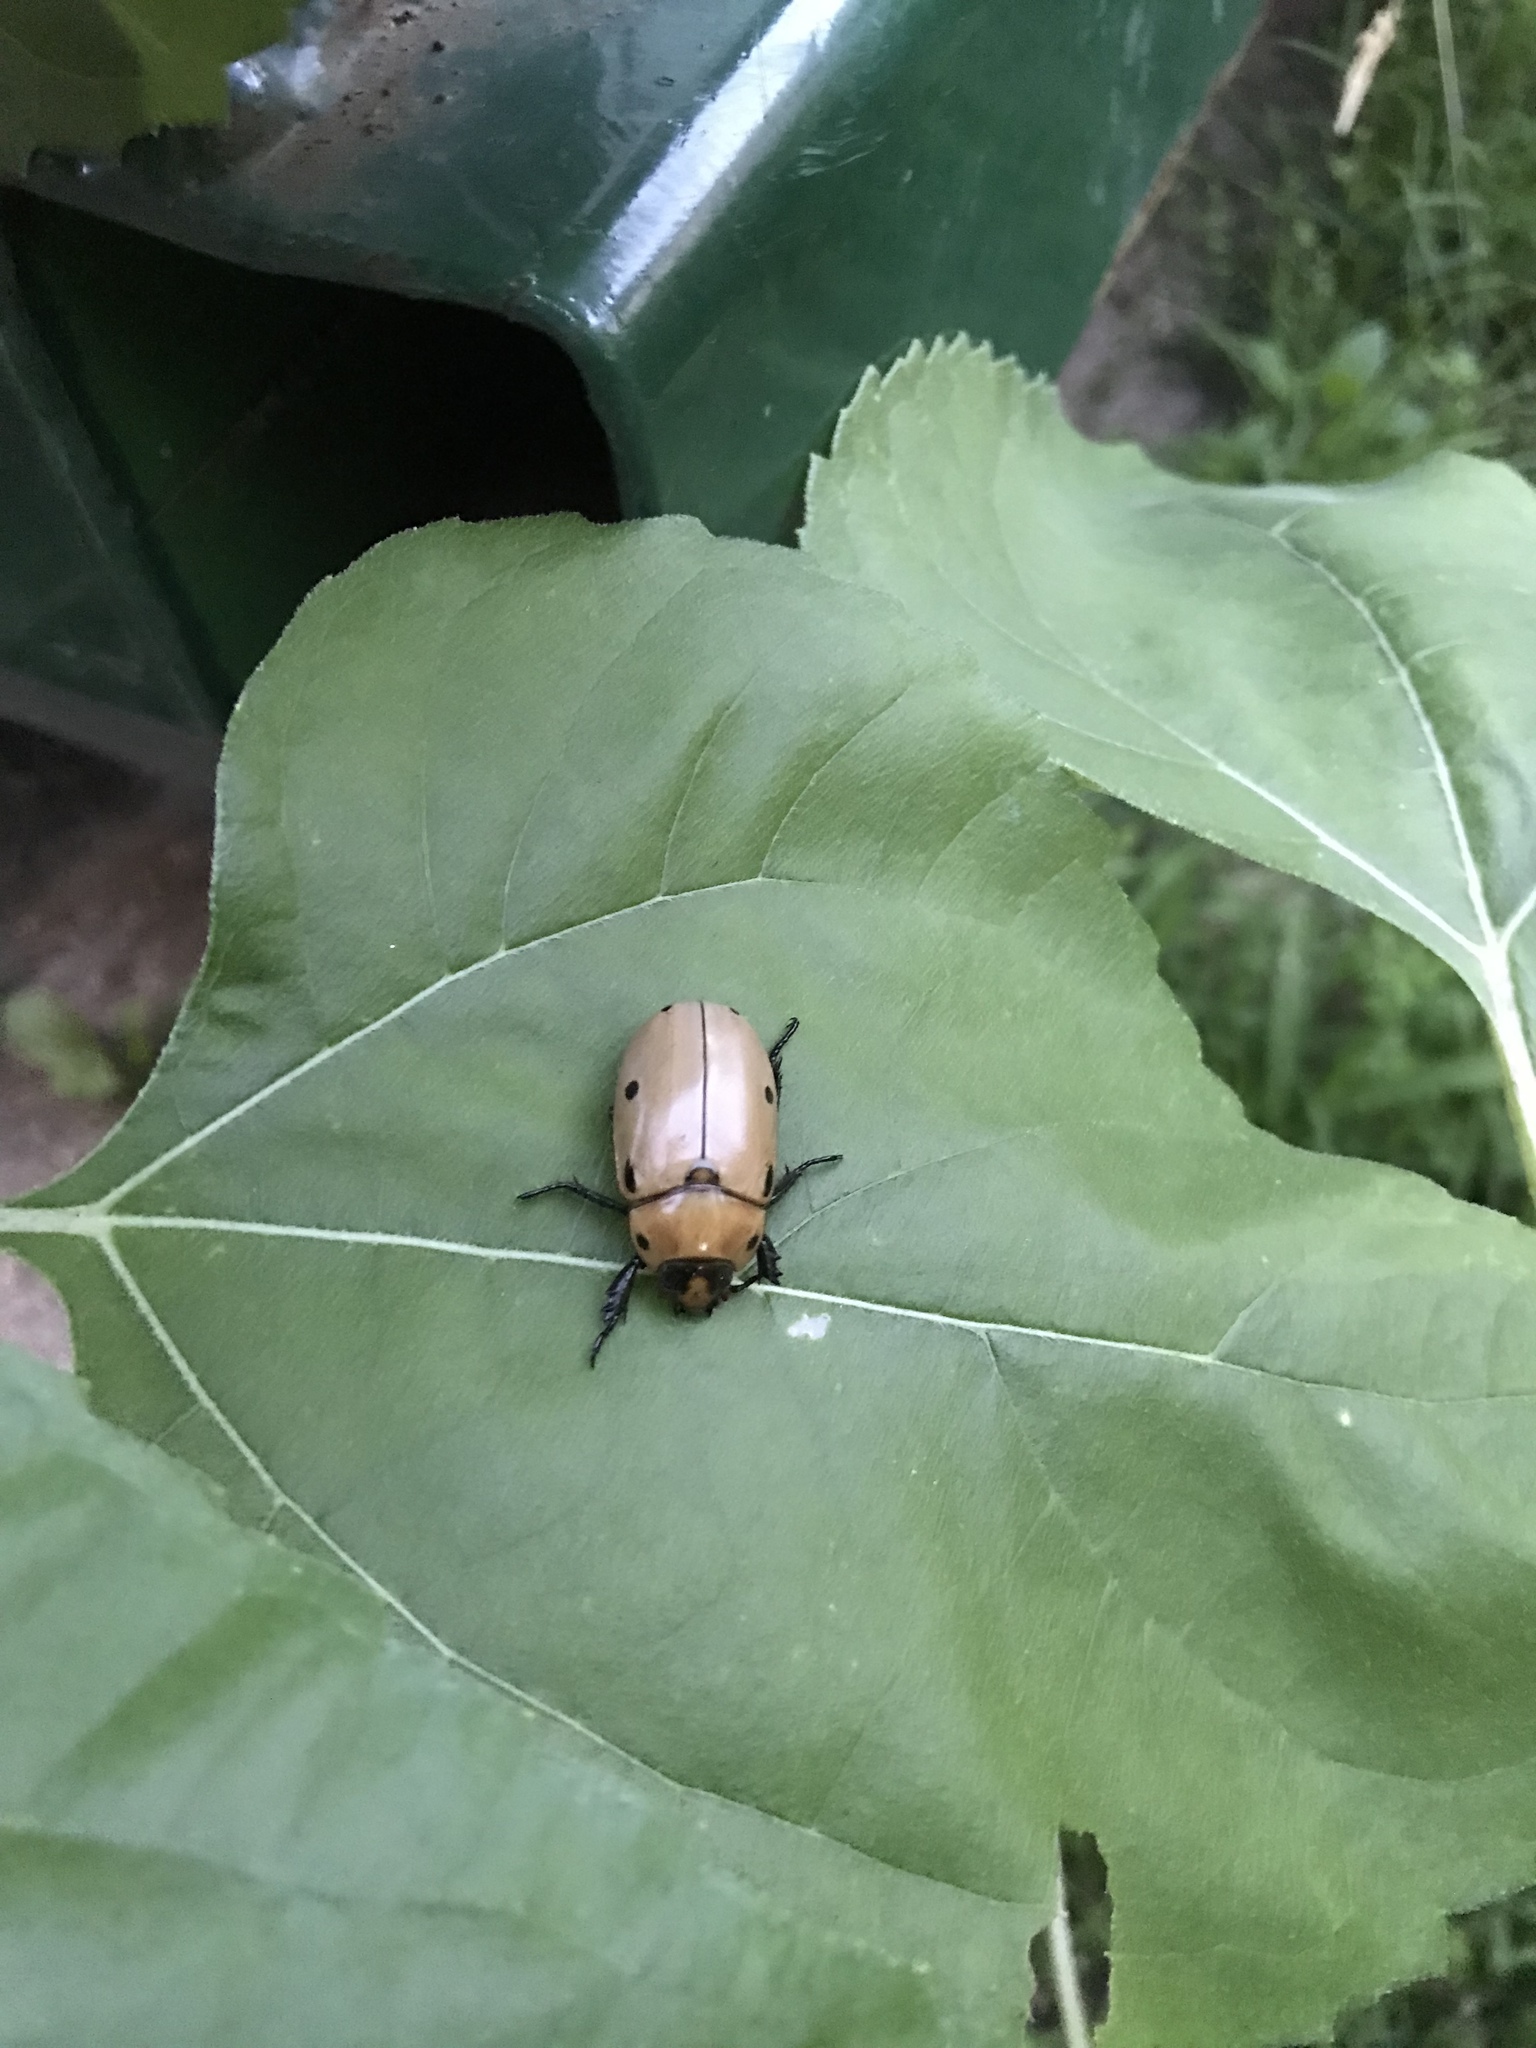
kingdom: Animalia
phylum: Arthropoda
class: Insecta
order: Coleoptera
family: Scarabaeidae
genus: Pelidnota
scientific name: Pelidnota punctata
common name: Grapevine beetle
